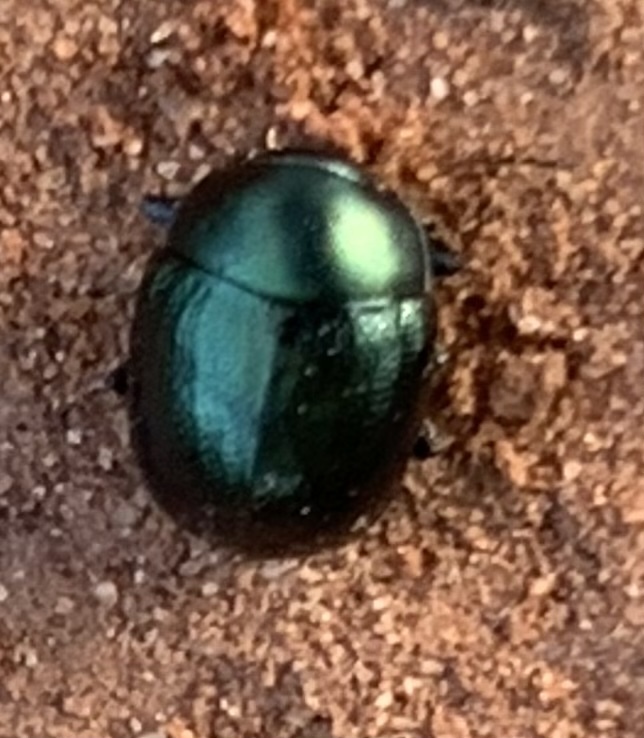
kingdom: Animalia
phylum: Arthropoda
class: Insecta
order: Coleoptera
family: Chrysomelidae
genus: Metaparia
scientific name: Metaparia opacicollis
